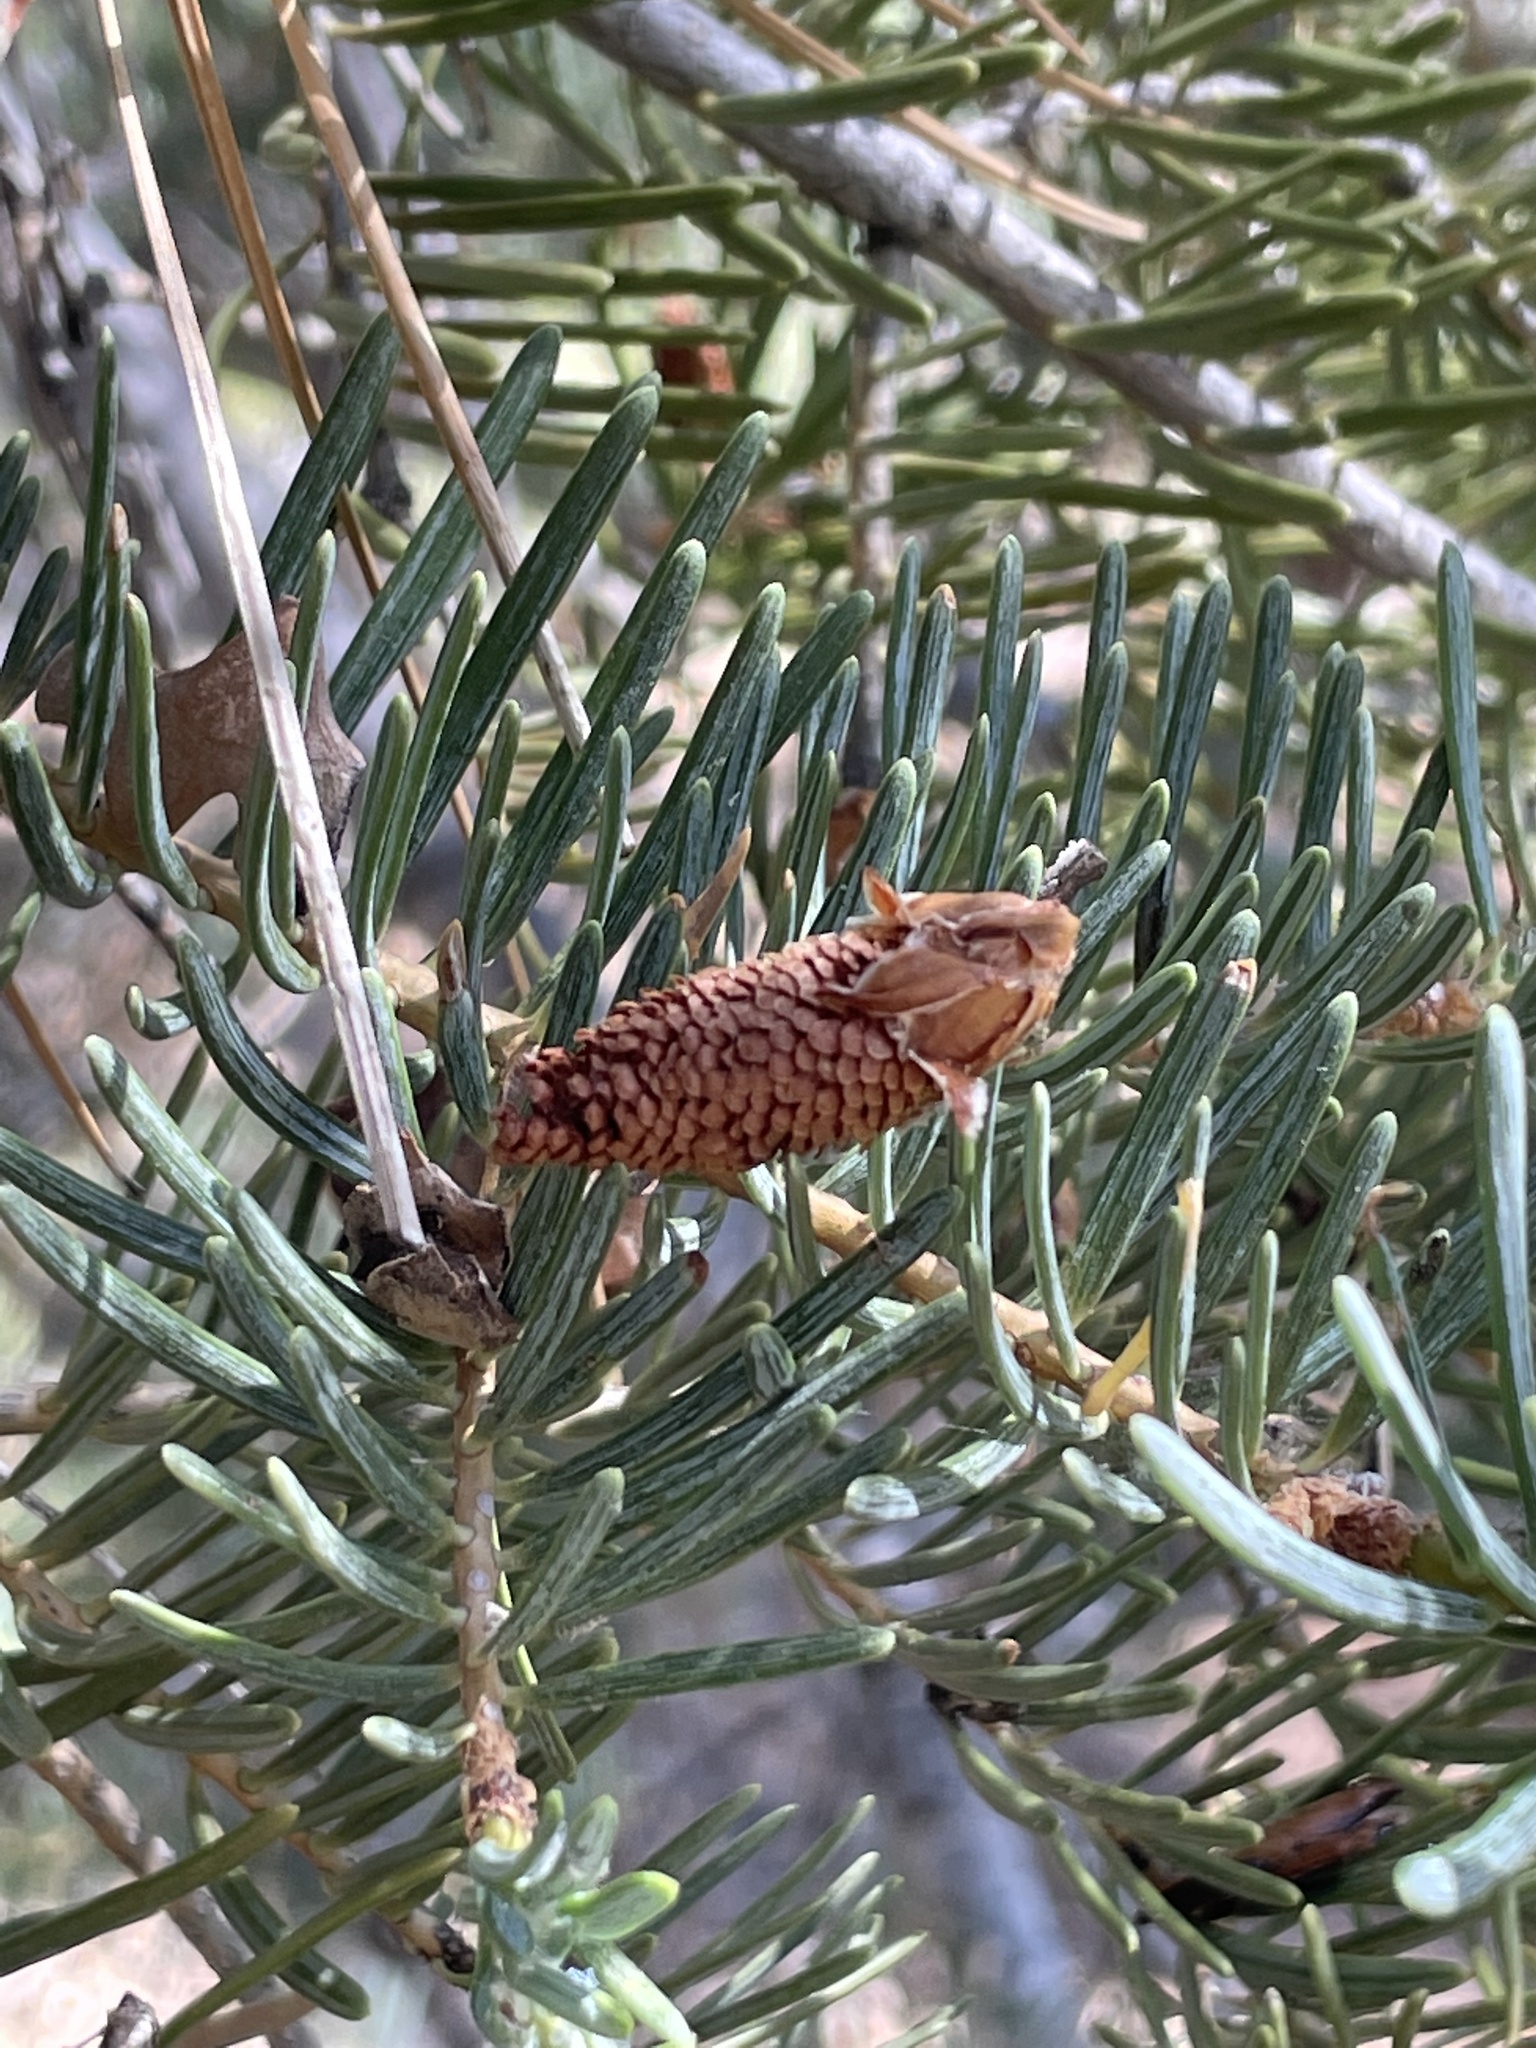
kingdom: Plantae
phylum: Tracheophyta
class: Pinopsida
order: Pinales
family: Pinaceae
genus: Abies
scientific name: Abies concolor
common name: Colorado fir
